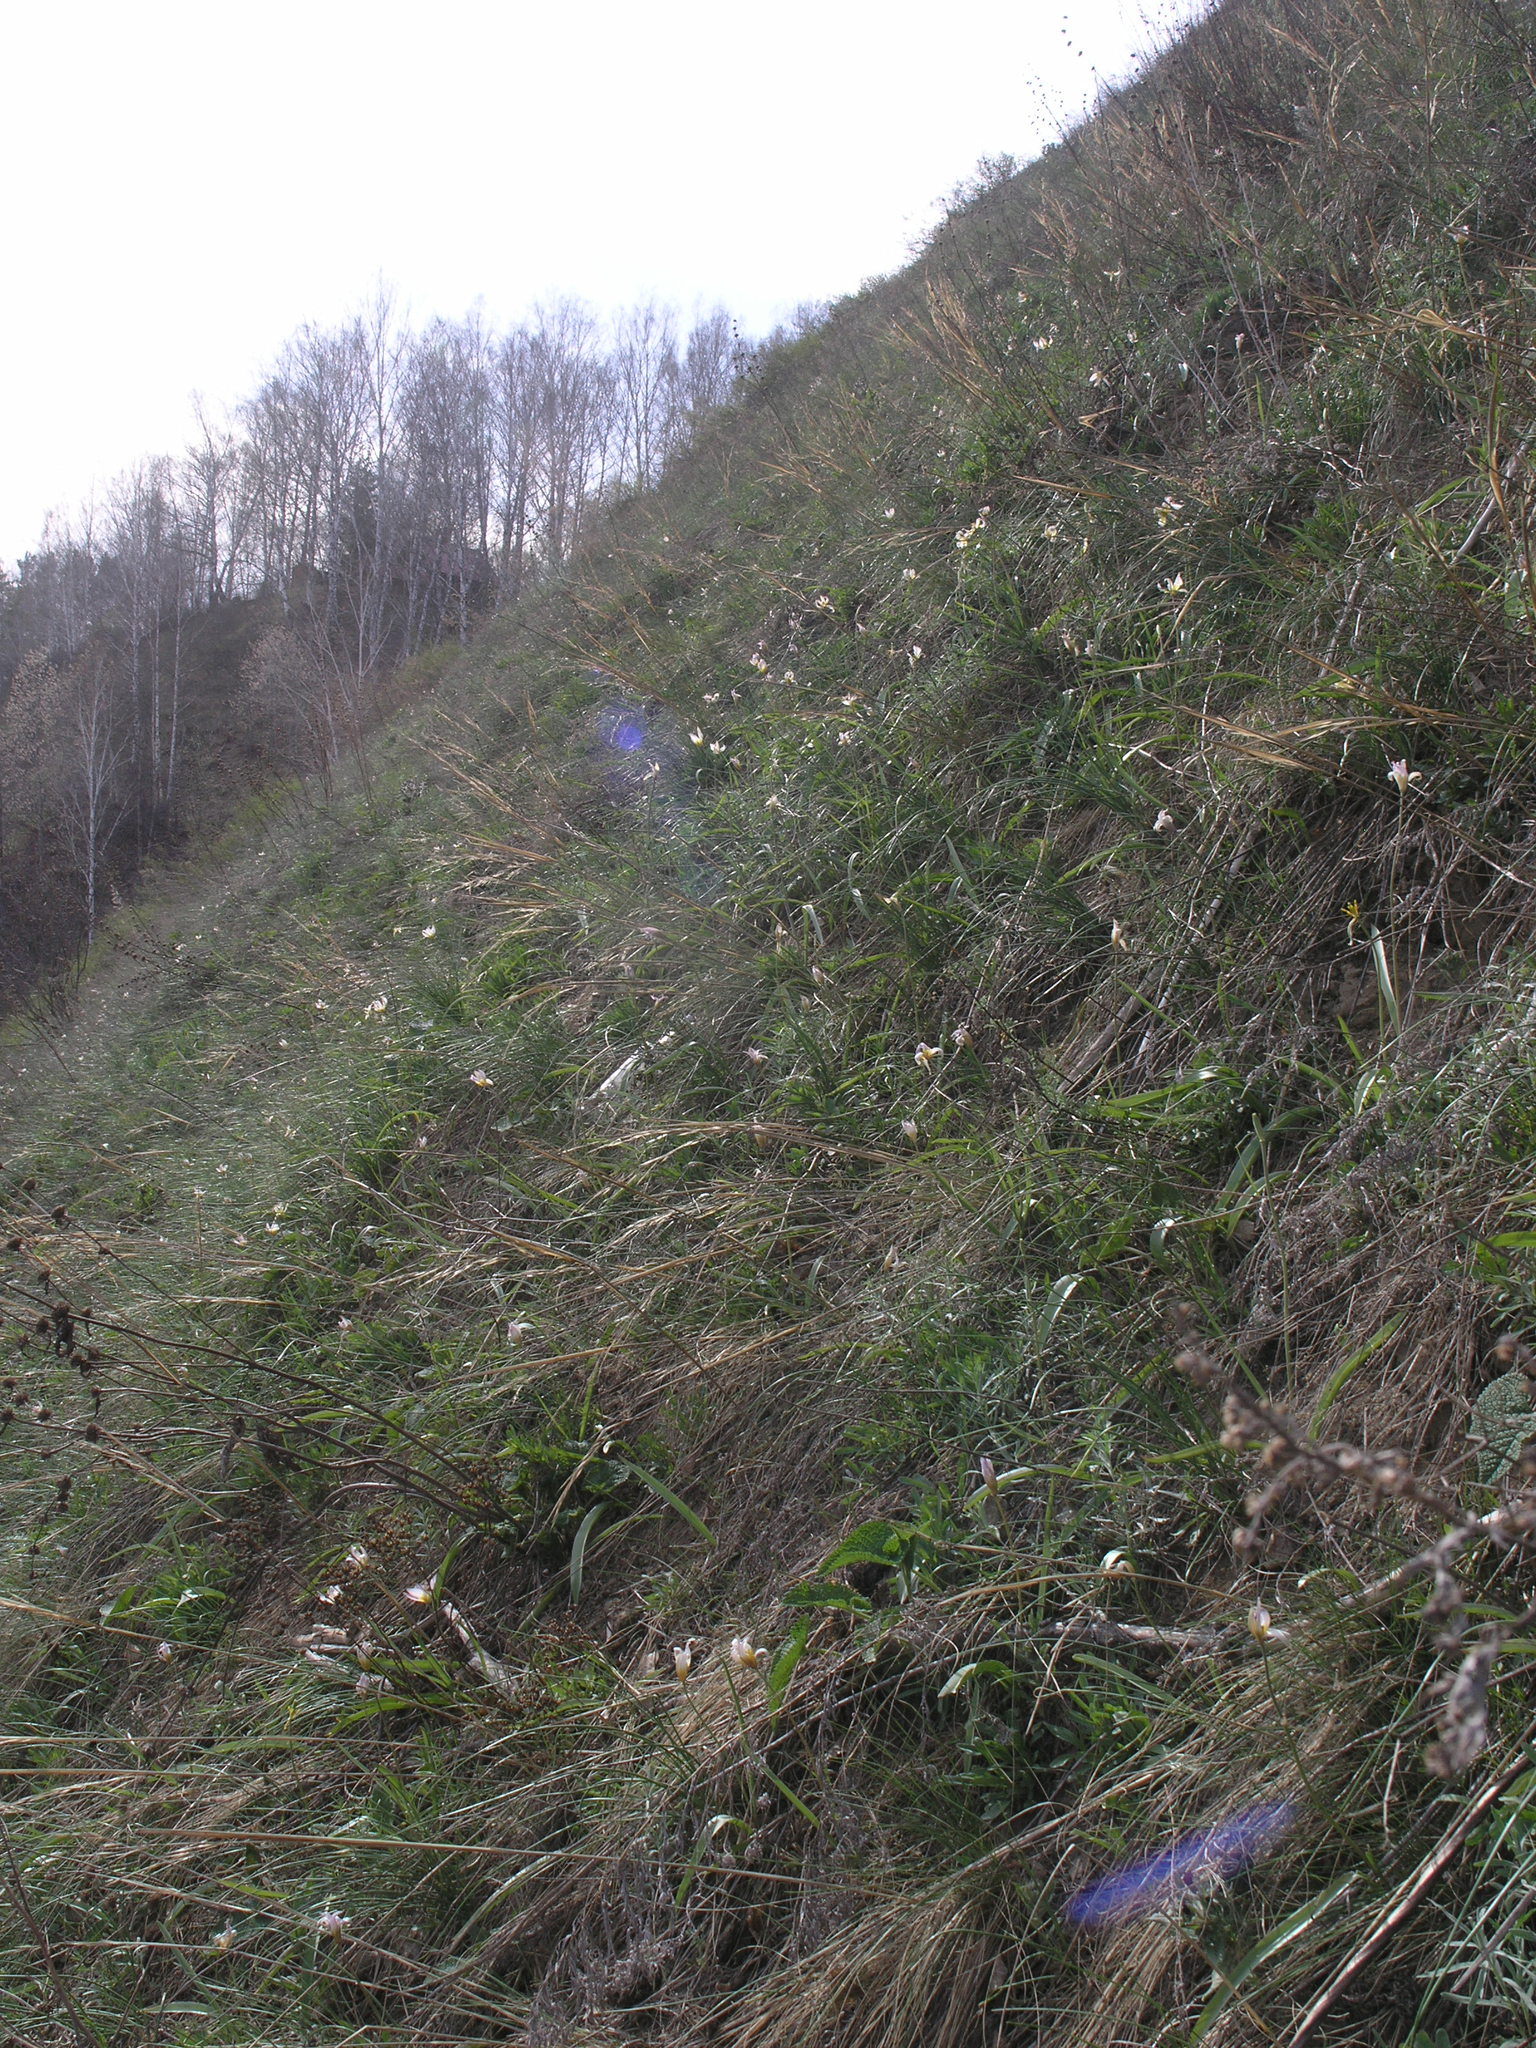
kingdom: Plantae
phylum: Tracheophyta
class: Liliopsida
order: Liliales
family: Liliaceae
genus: Tulipa
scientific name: Tulipa patens
